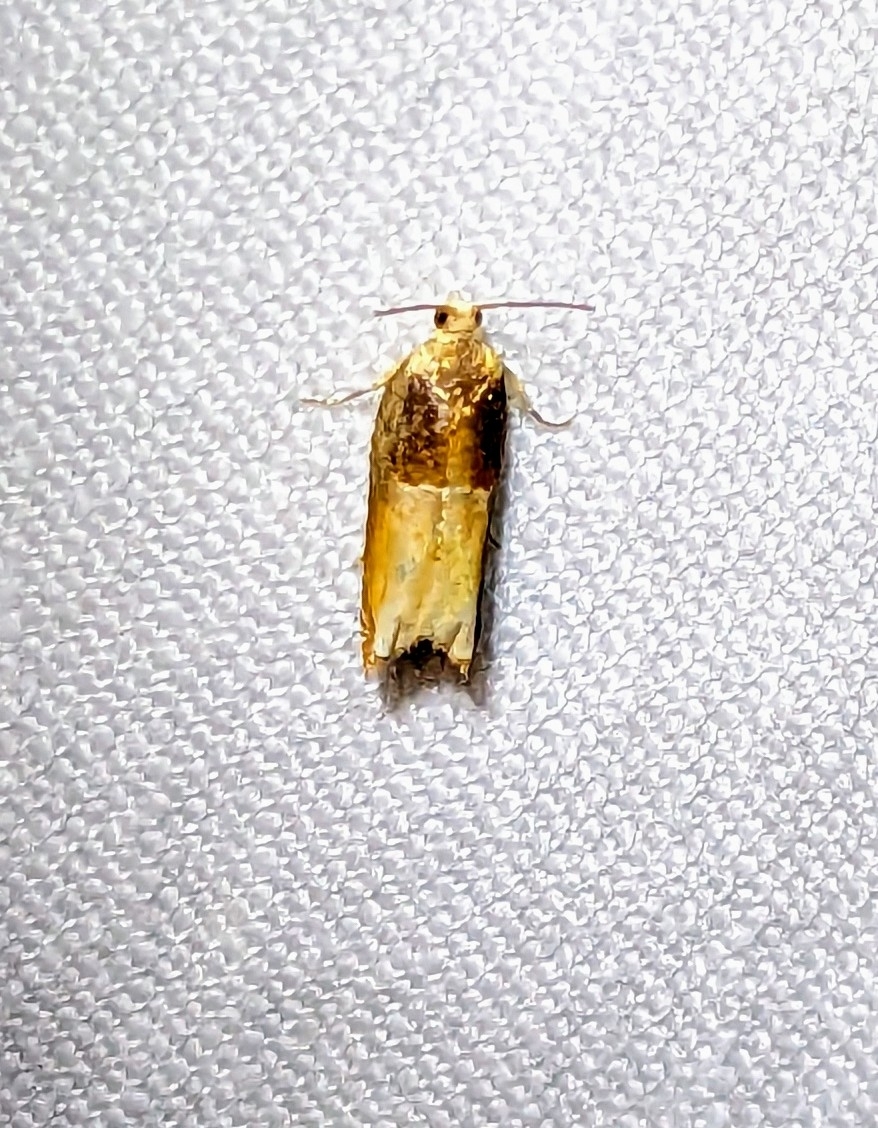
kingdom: Animalia
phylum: Arthropoda
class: Insecta
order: Lepidoptera
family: Tortricidae
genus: Ancylis
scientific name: Ancylis divisana
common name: Two-toned ancylis moth
